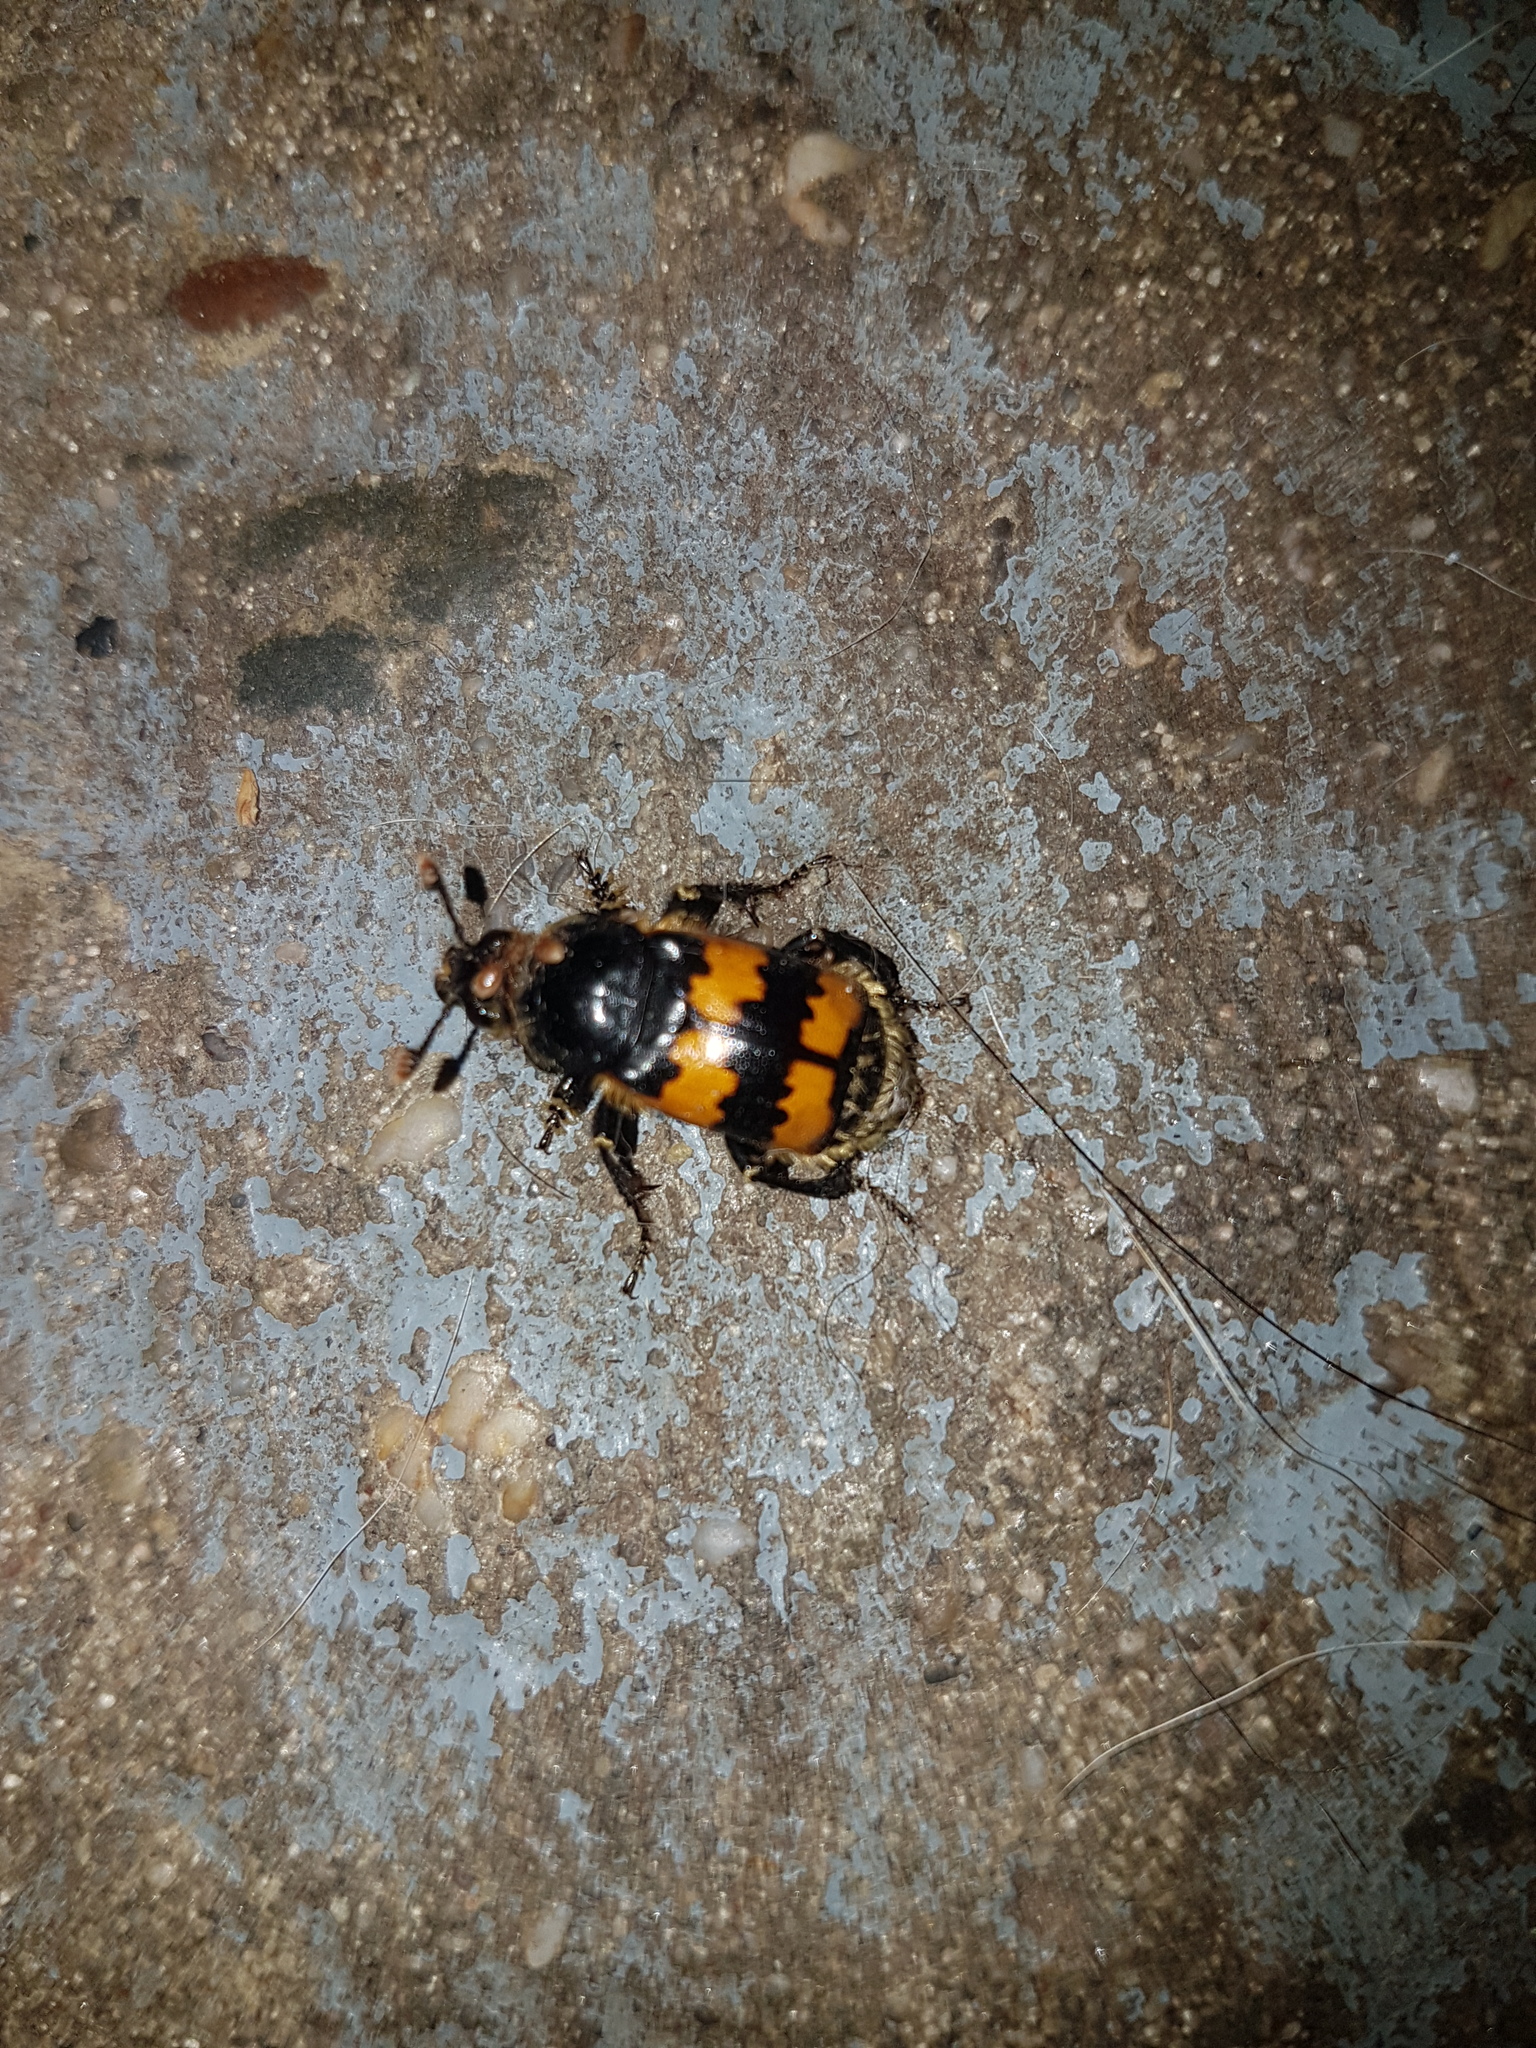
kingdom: Animalia
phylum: Arthropoda
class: Insecta
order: Coleoptera
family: Staphylinidae
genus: Nicrophorus
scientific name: Nicrophorus vespillo
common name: Common burying beetle
